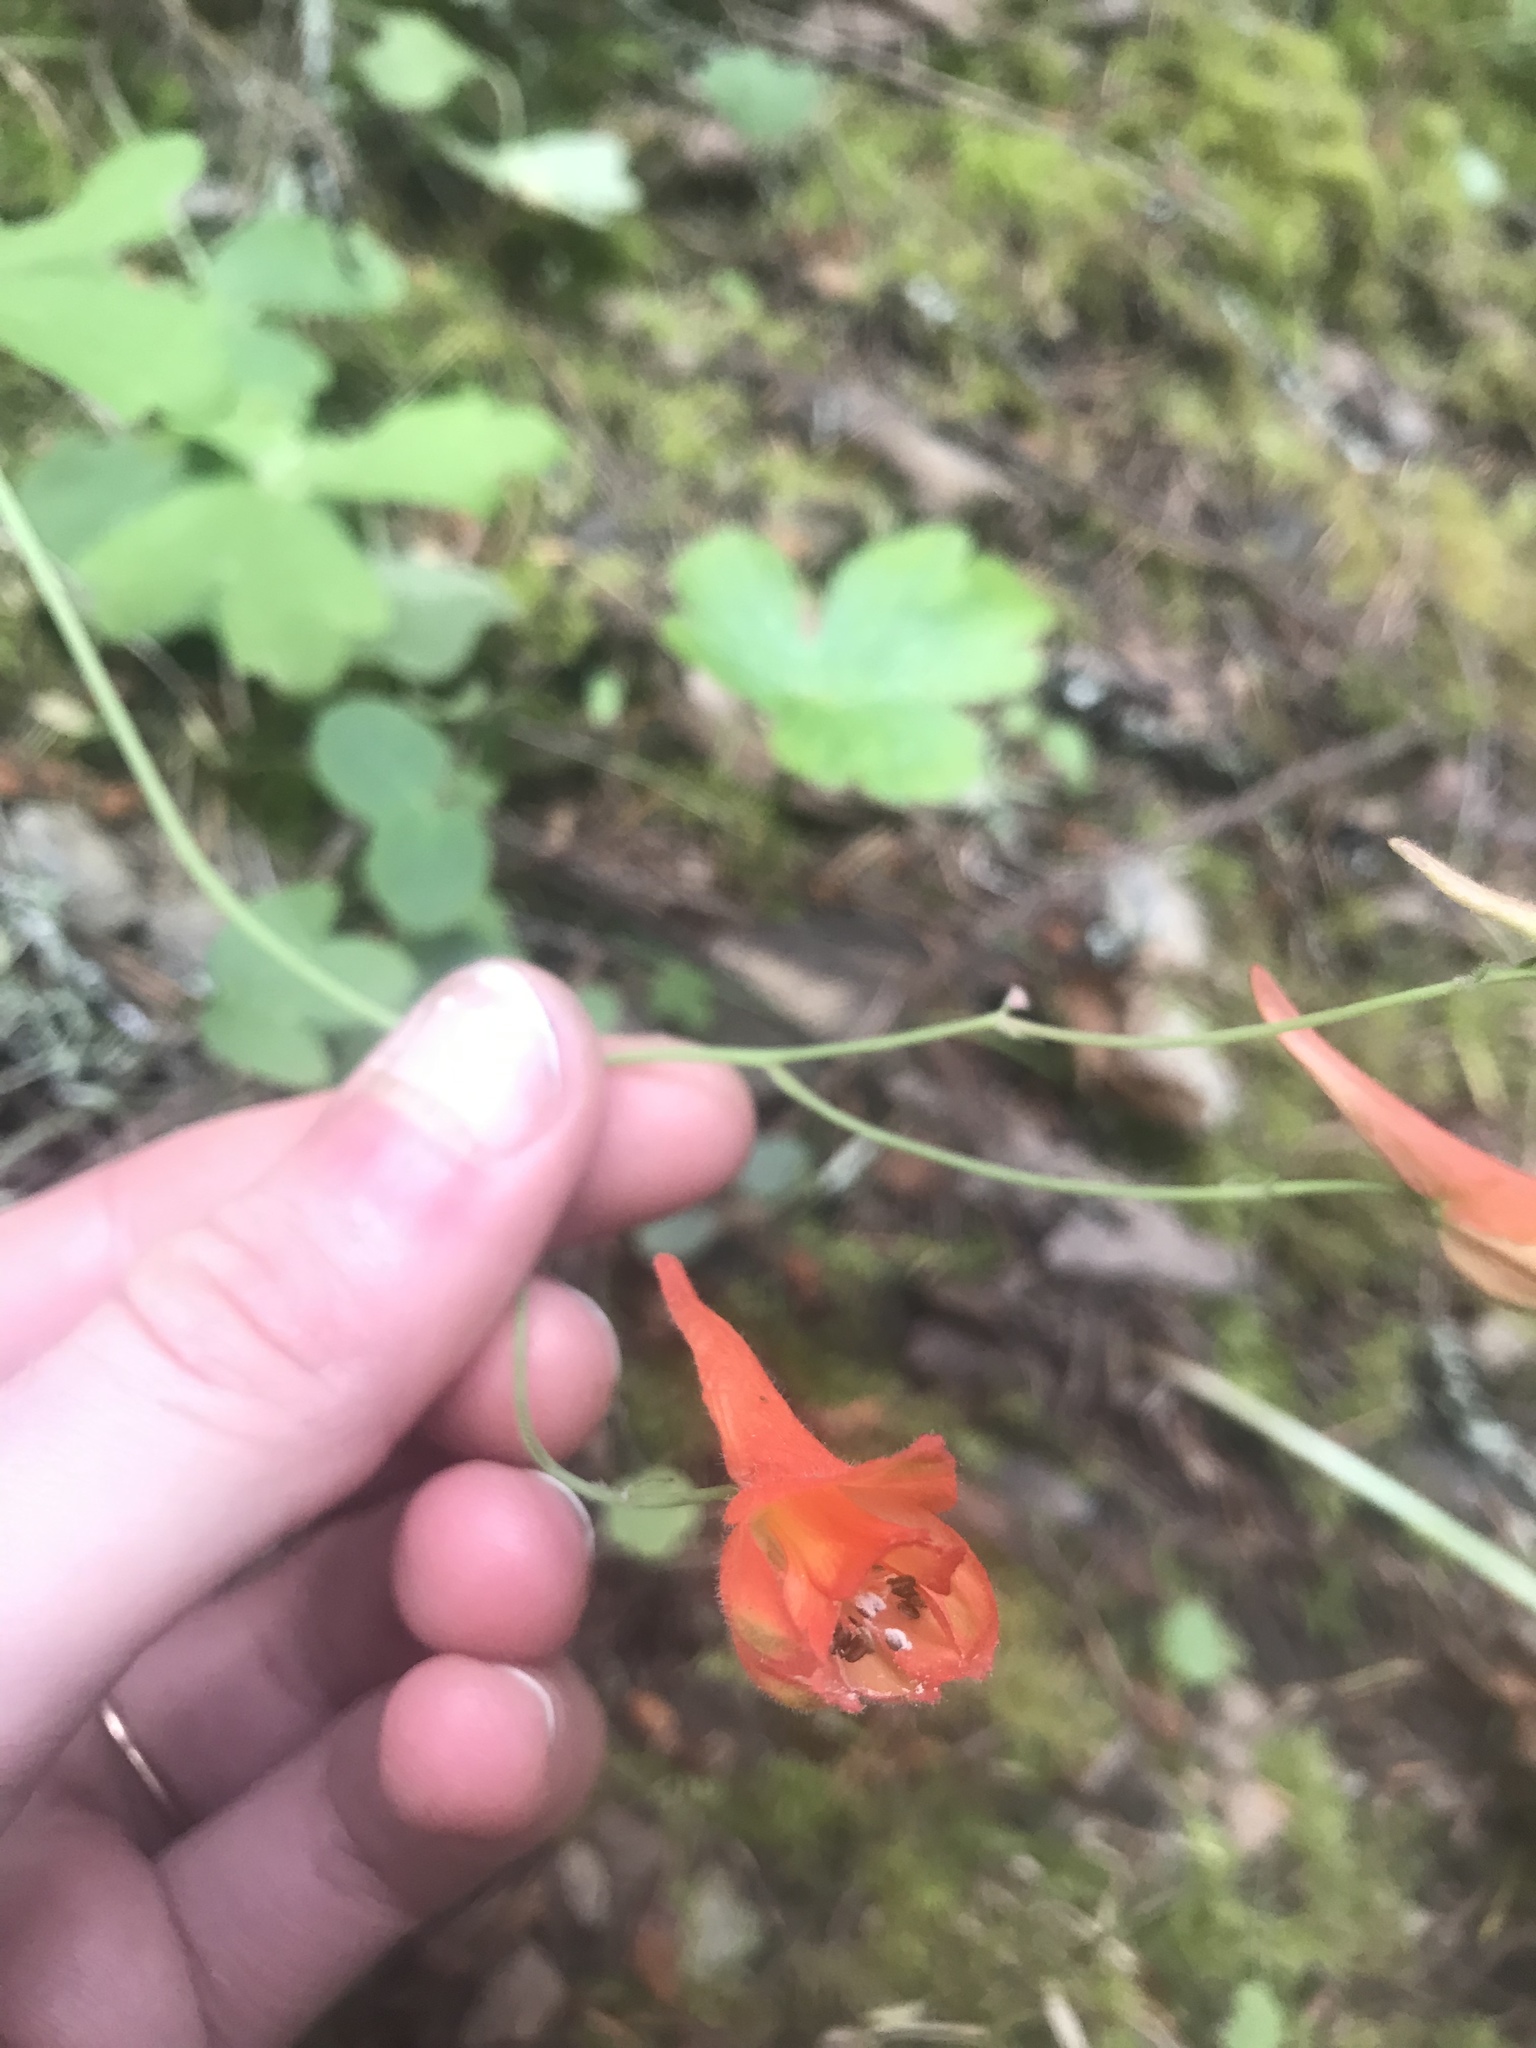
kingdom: Plantae
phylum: Tracheophyta
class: Magnoliopsida
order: Ranunculales
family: Ranunculaceae
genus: Delphinium
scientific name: Delphinium nudicaule
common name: Red larkspur
